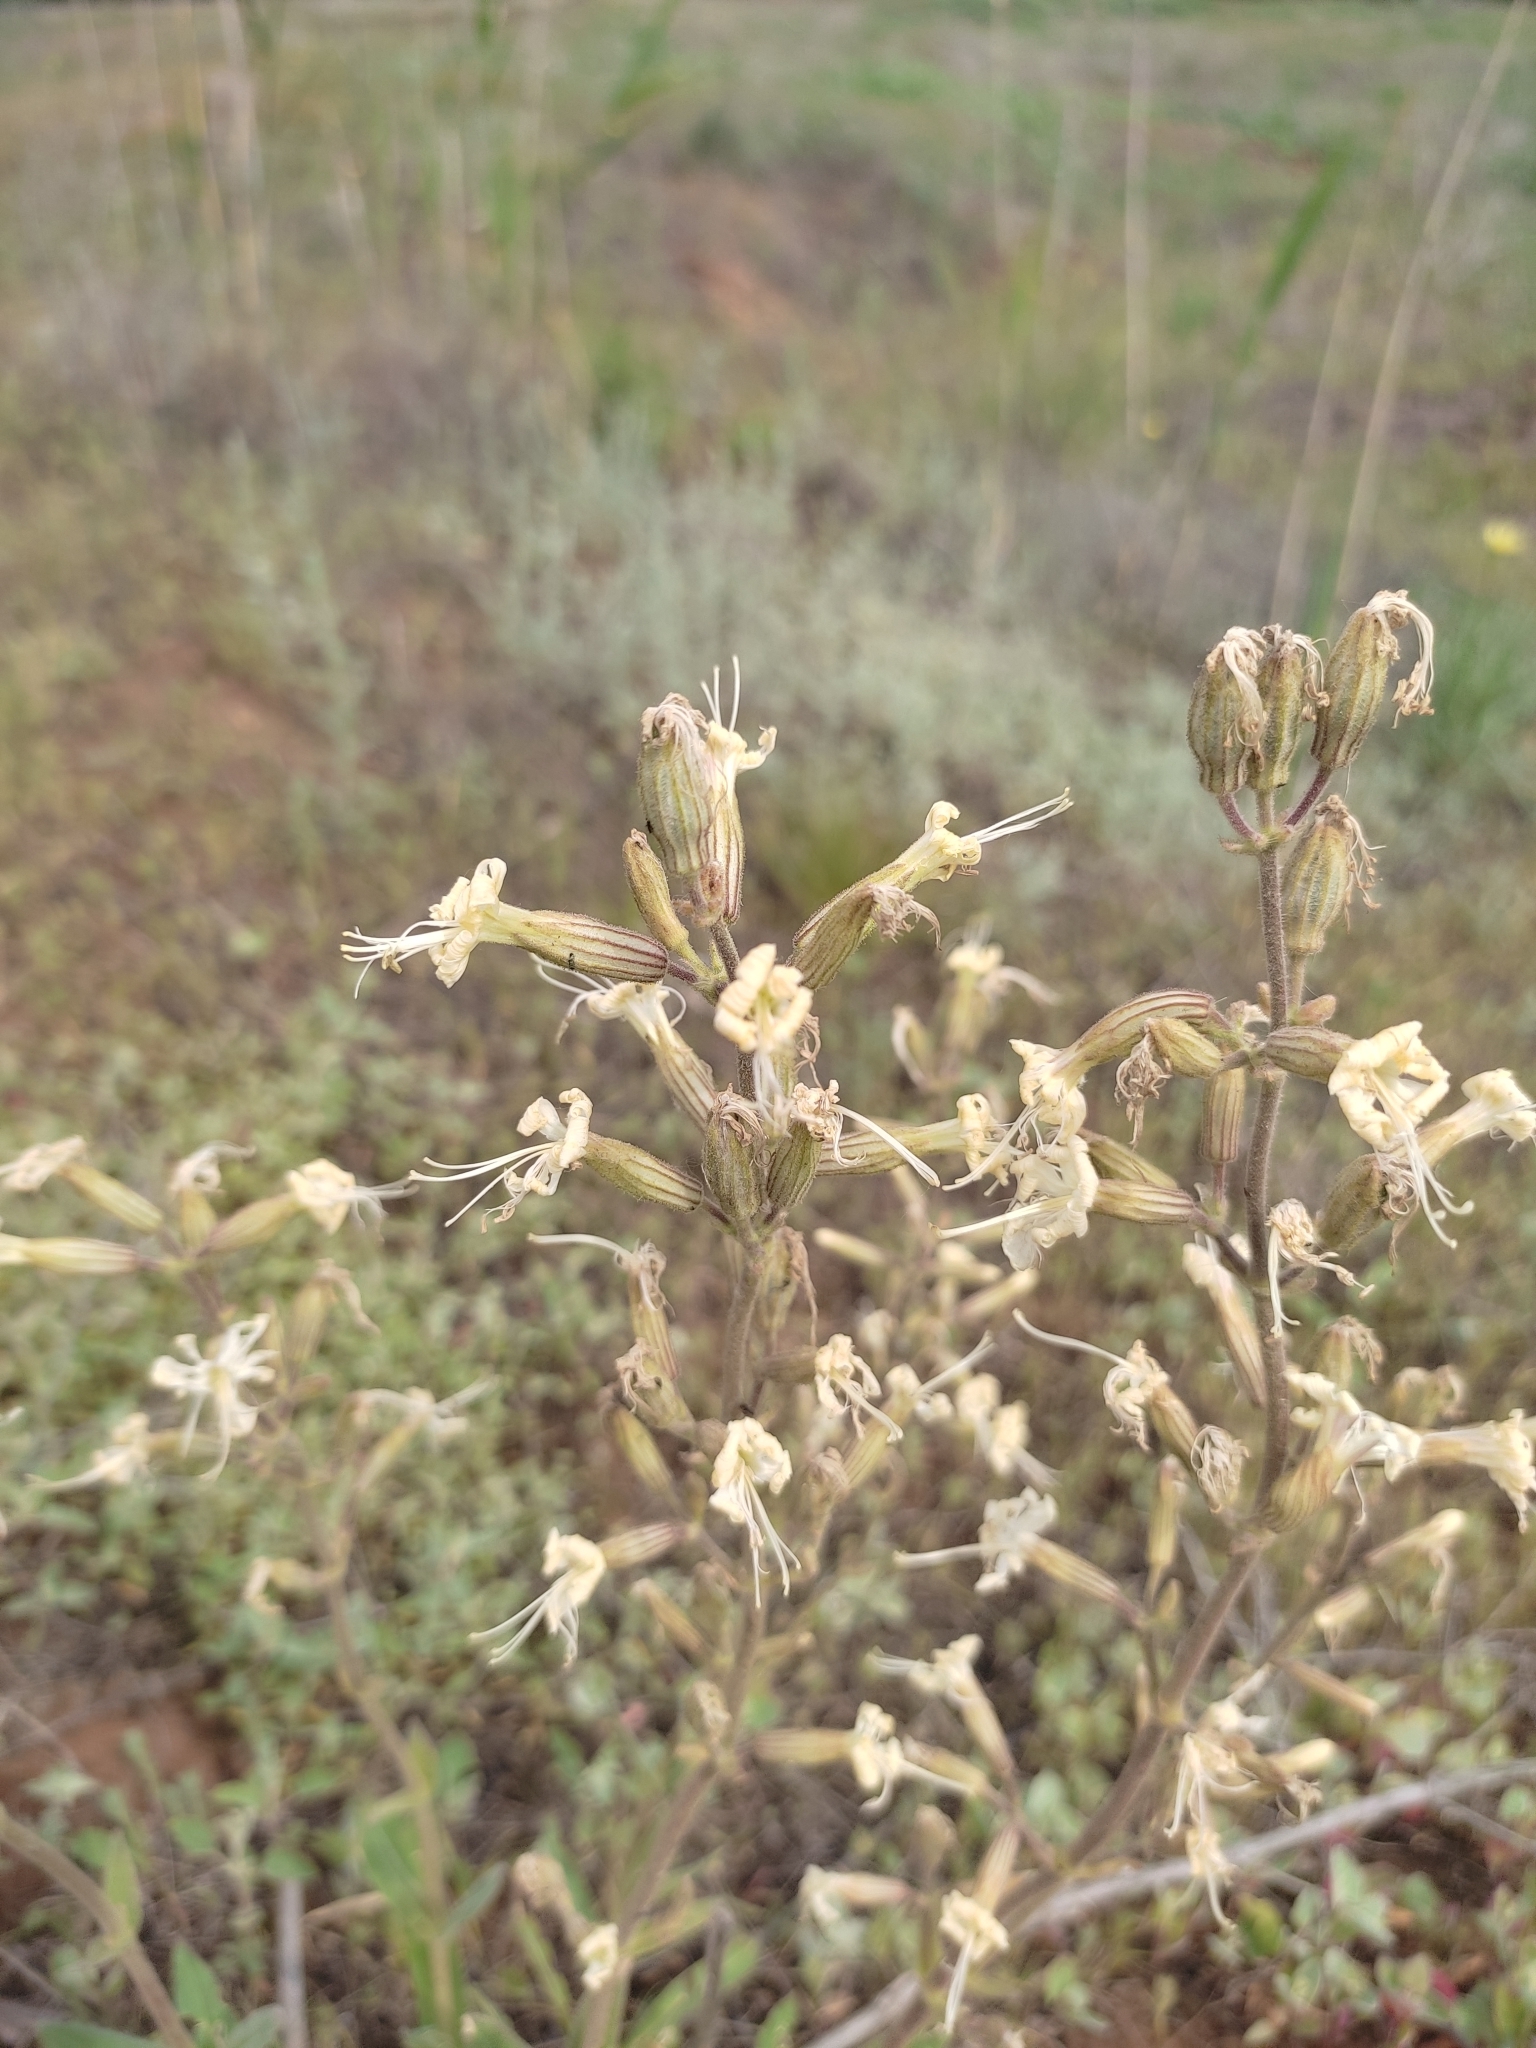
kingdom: Plantae
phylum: Tracheophyta
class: Magnoliopsida
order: Caryophyllales
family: Caryophyllaceae
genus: Silene
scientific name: Silene viscosa
